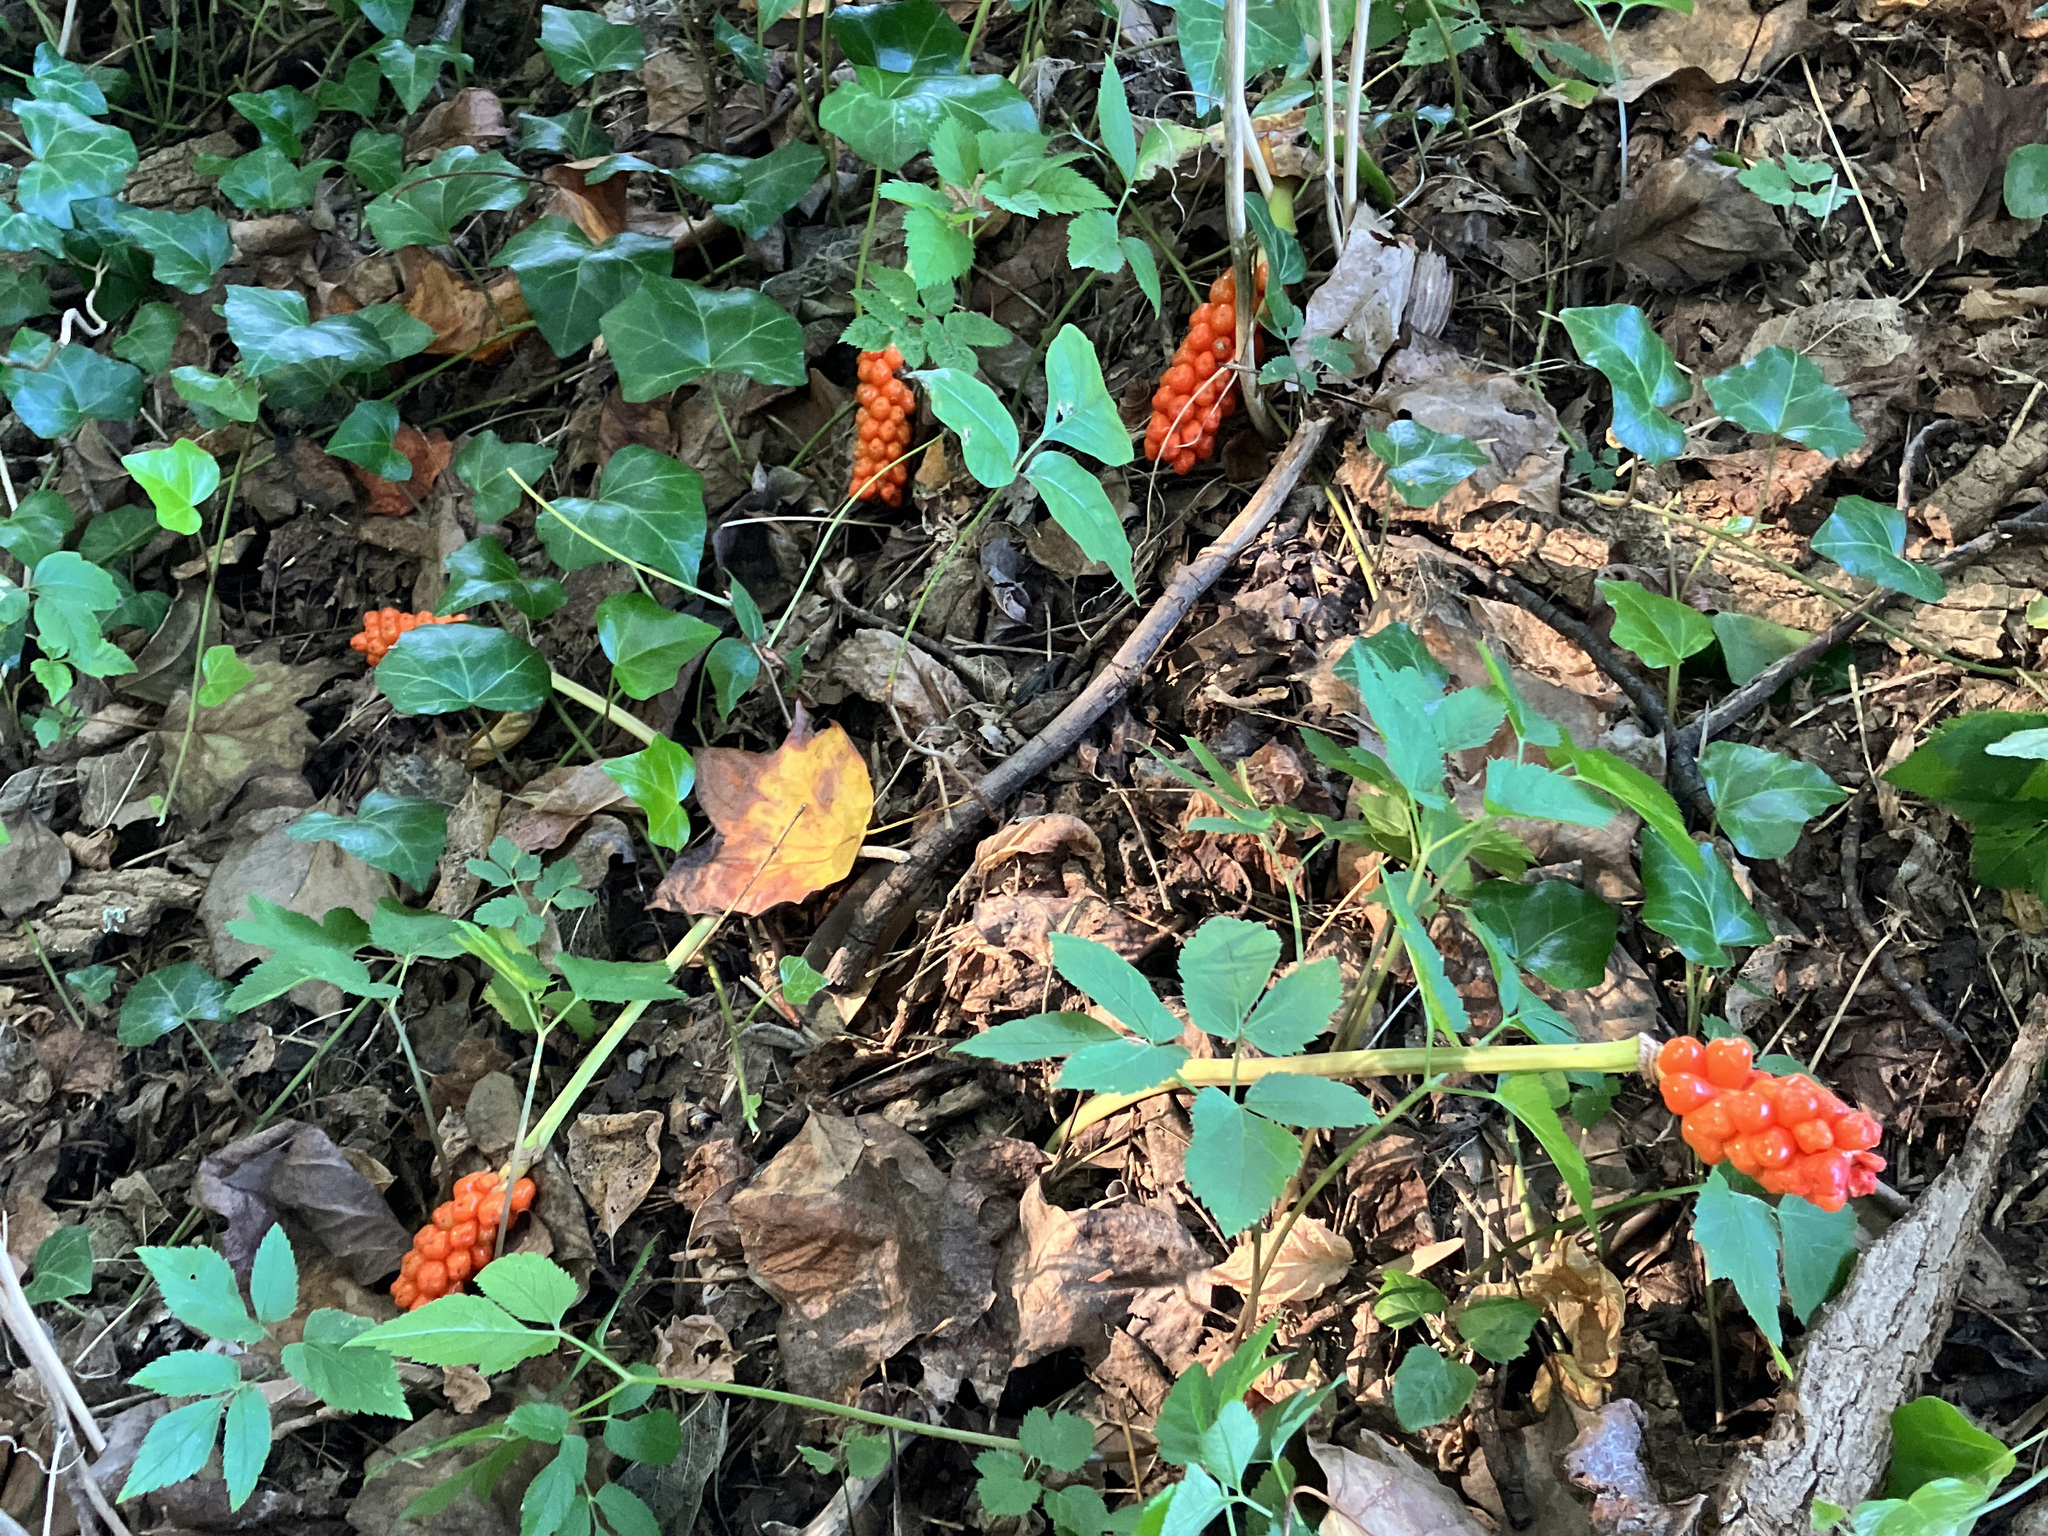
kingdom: Plantae
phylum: Tracheophyta
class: Liliopsida
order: Alismatales
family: Araceae
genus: Arum
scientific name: Arum italicum
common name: Italian lords-and-ladies
